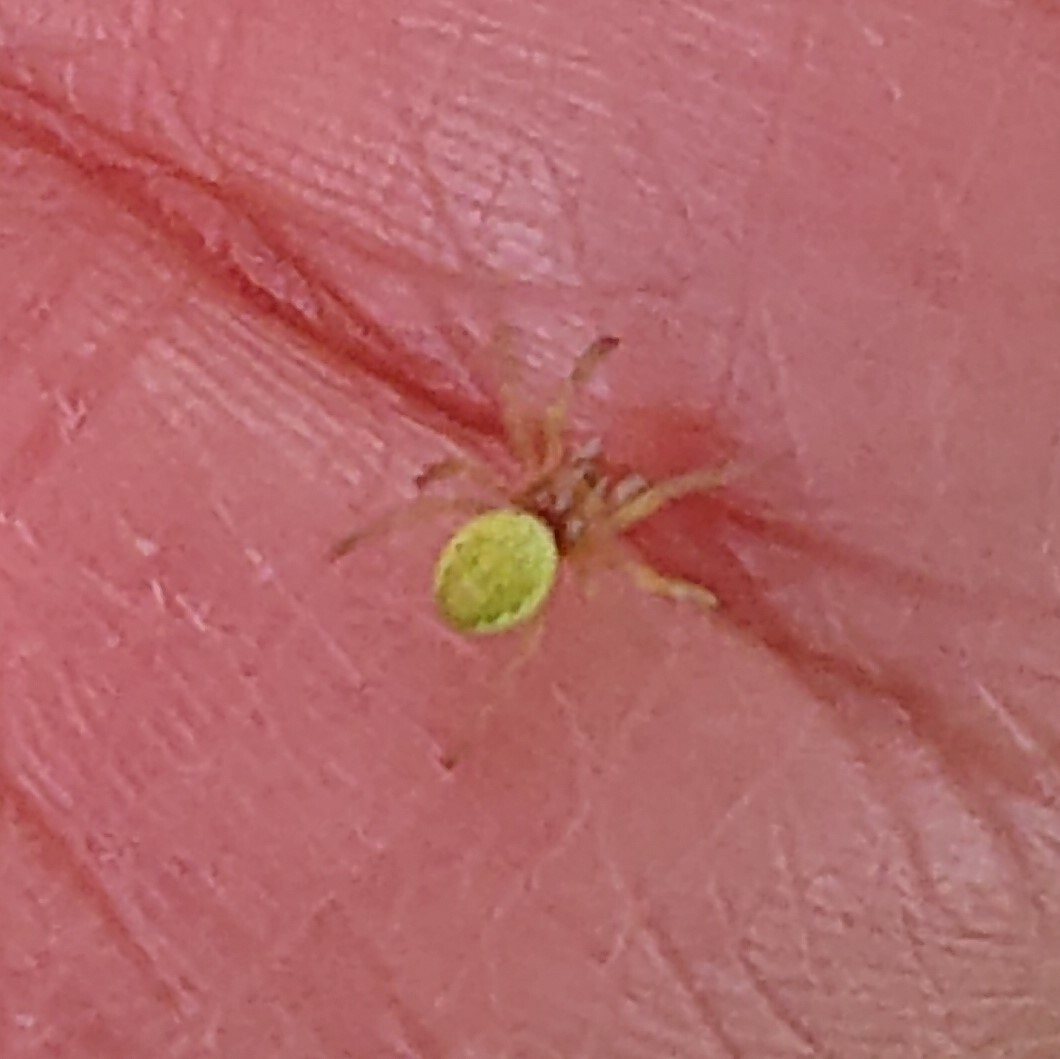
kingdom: Animalia
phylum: Arthropoda
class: Arachnida
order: Araneae
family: Araneidae
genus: Araniella
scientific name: Araniella
